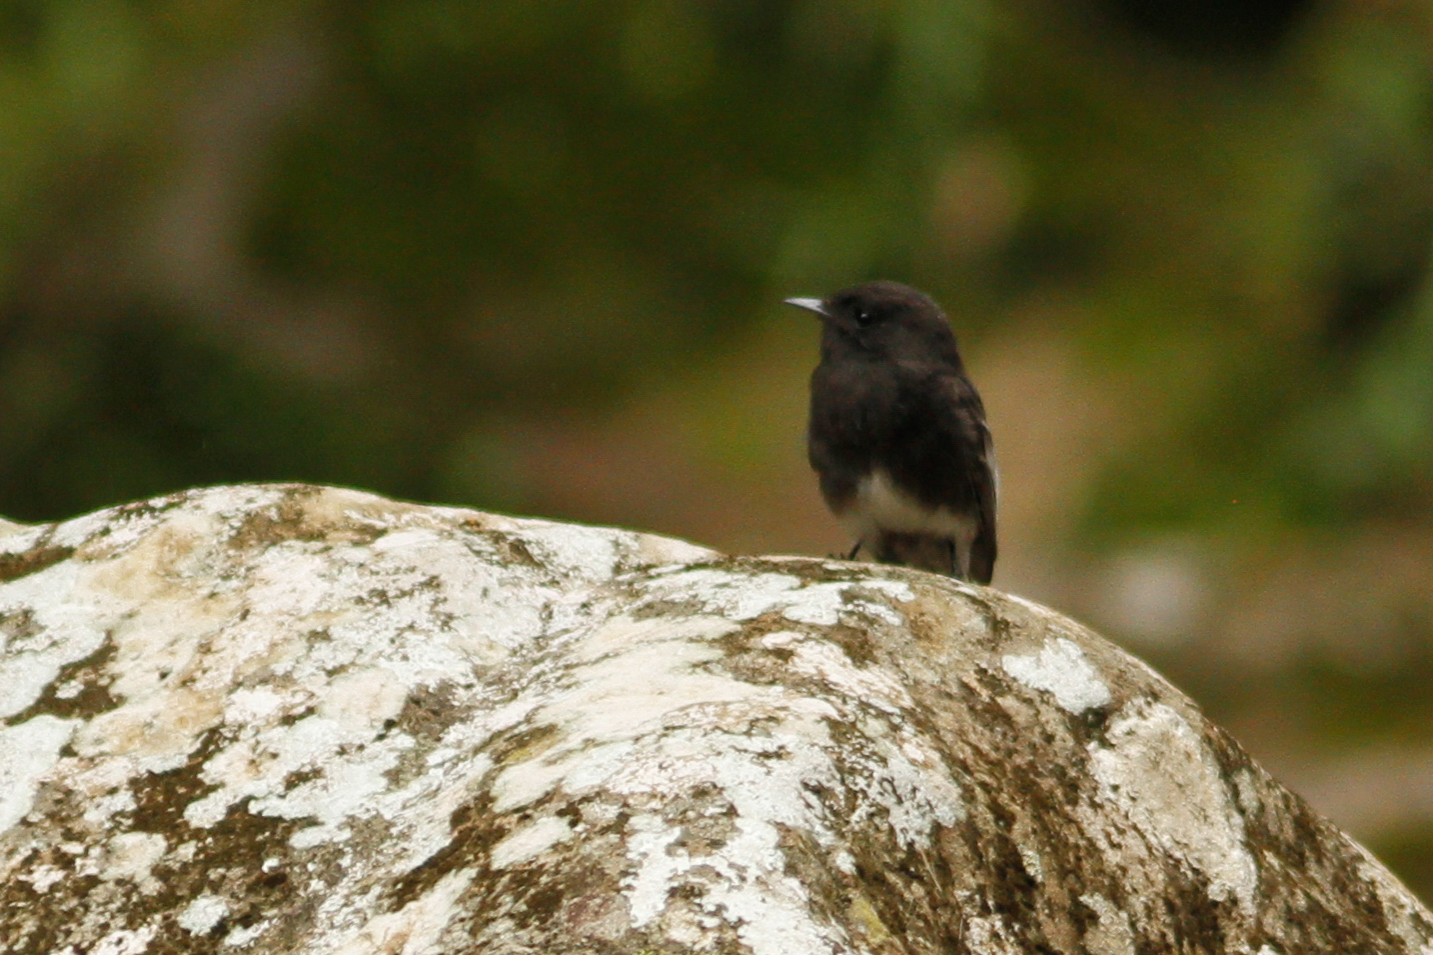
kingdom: Animalia
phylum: Chordata
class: Aves
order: Passeriformes
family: Tyrannidae
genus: Sayornis
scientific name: Sayornis nigricans
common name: Black phoebe
